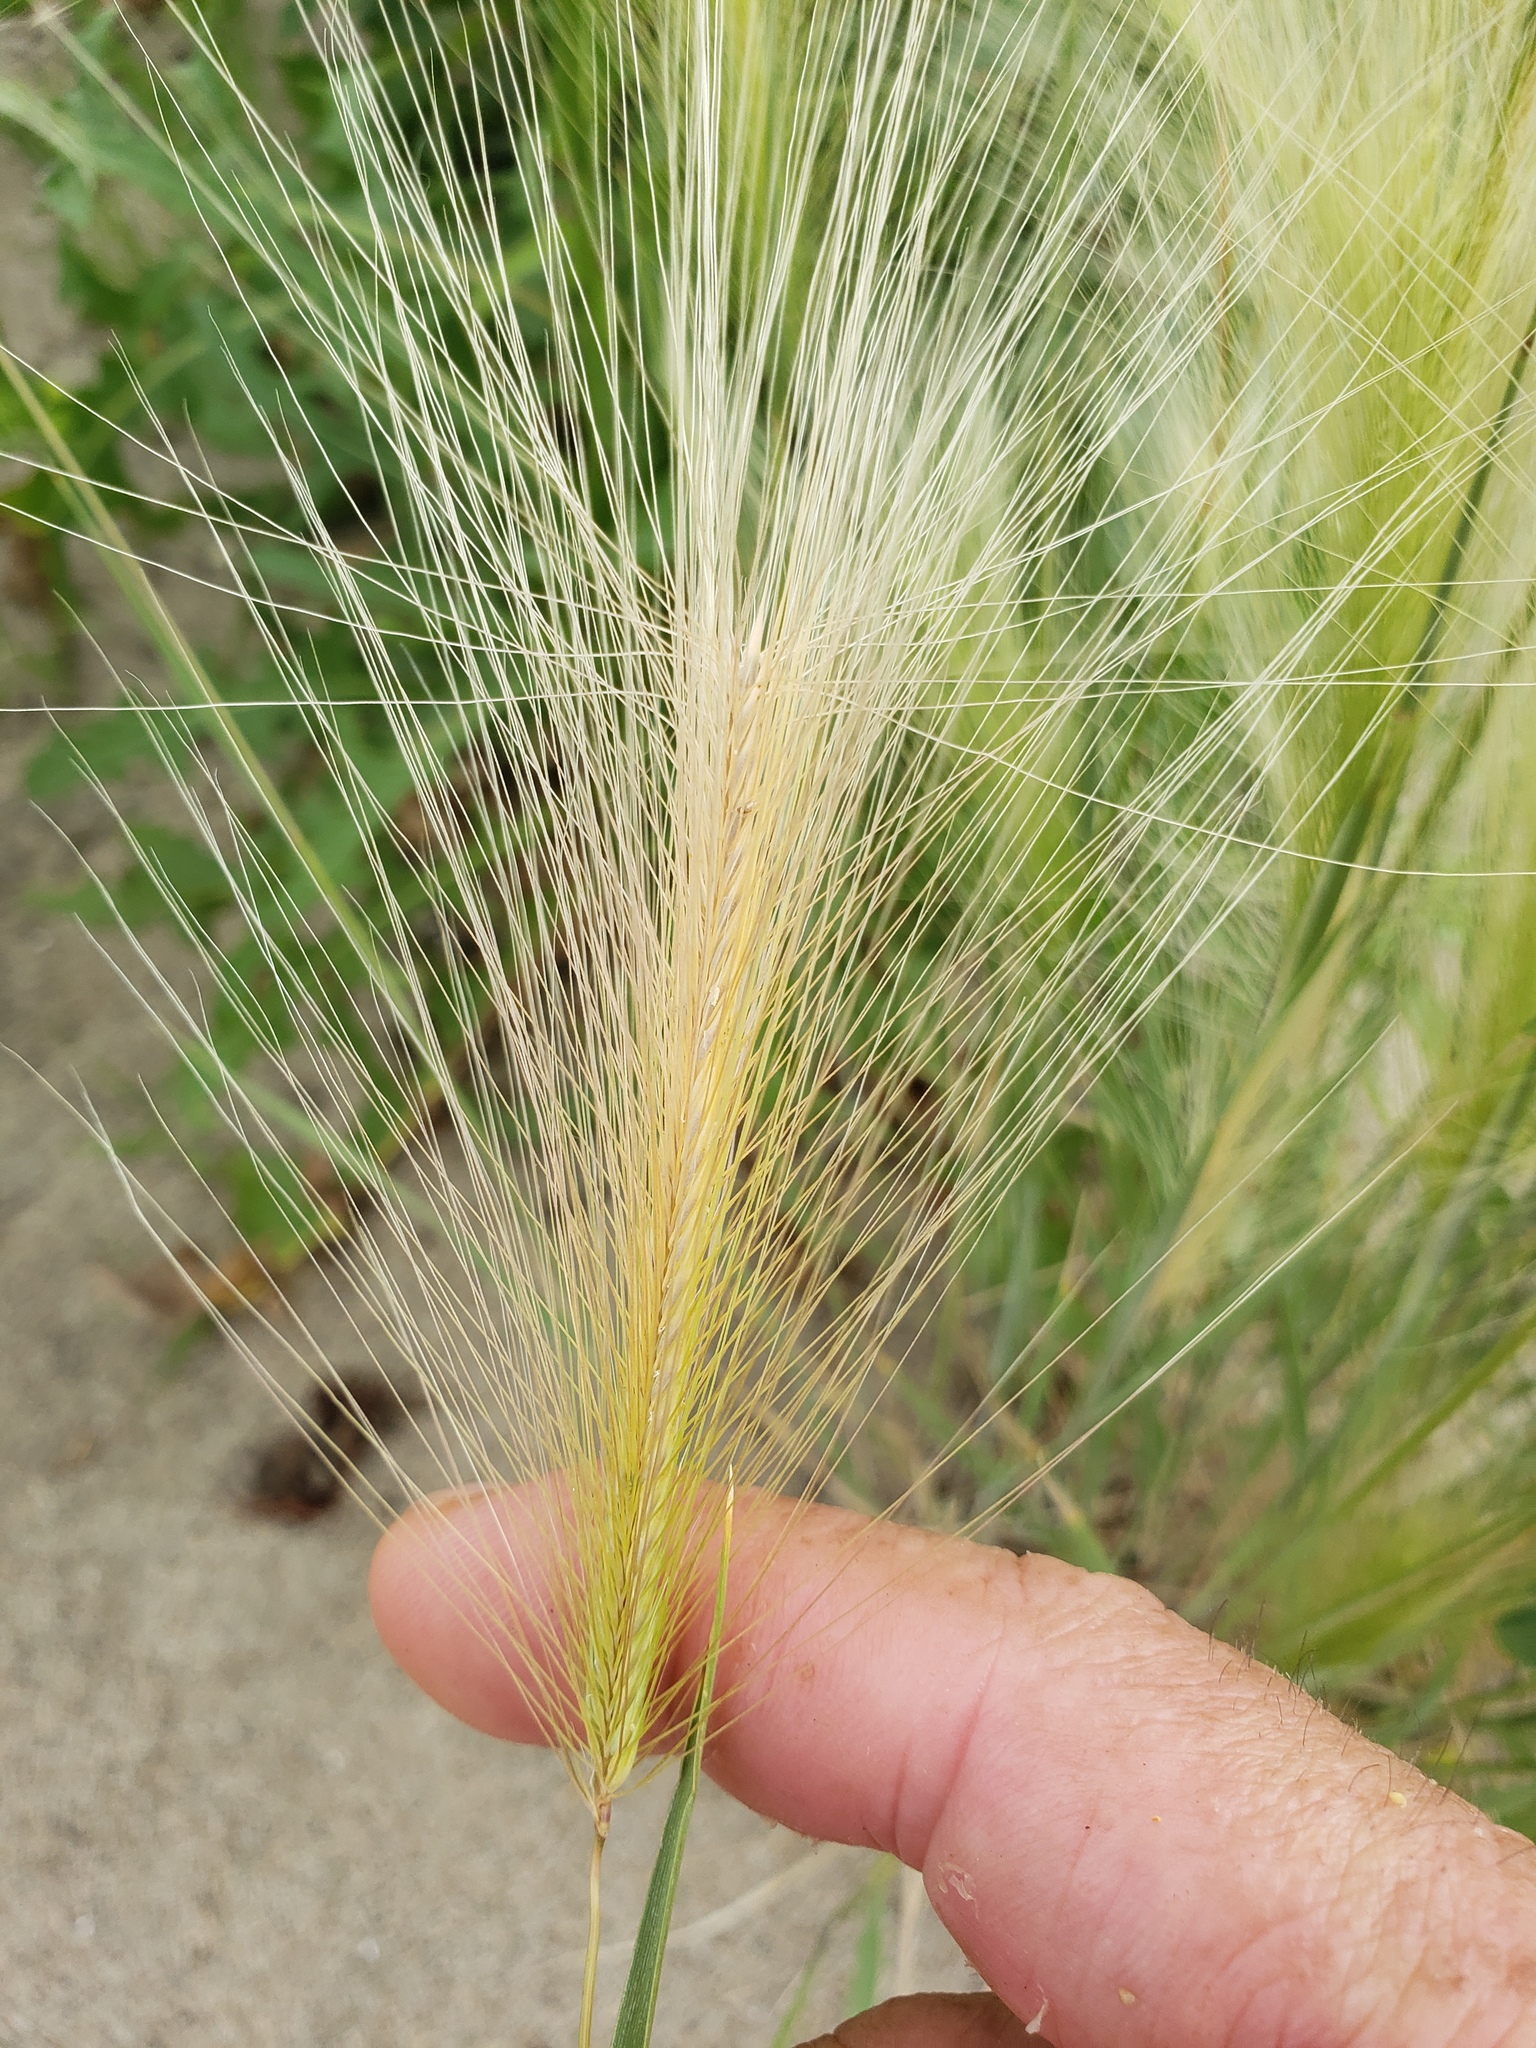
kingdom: Plantae
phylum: Tracheophyta
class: Liliopsida
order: Poales
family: Poaceae
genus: Hordeum
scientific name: Hordeum jubatum
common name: Foxtail barley
